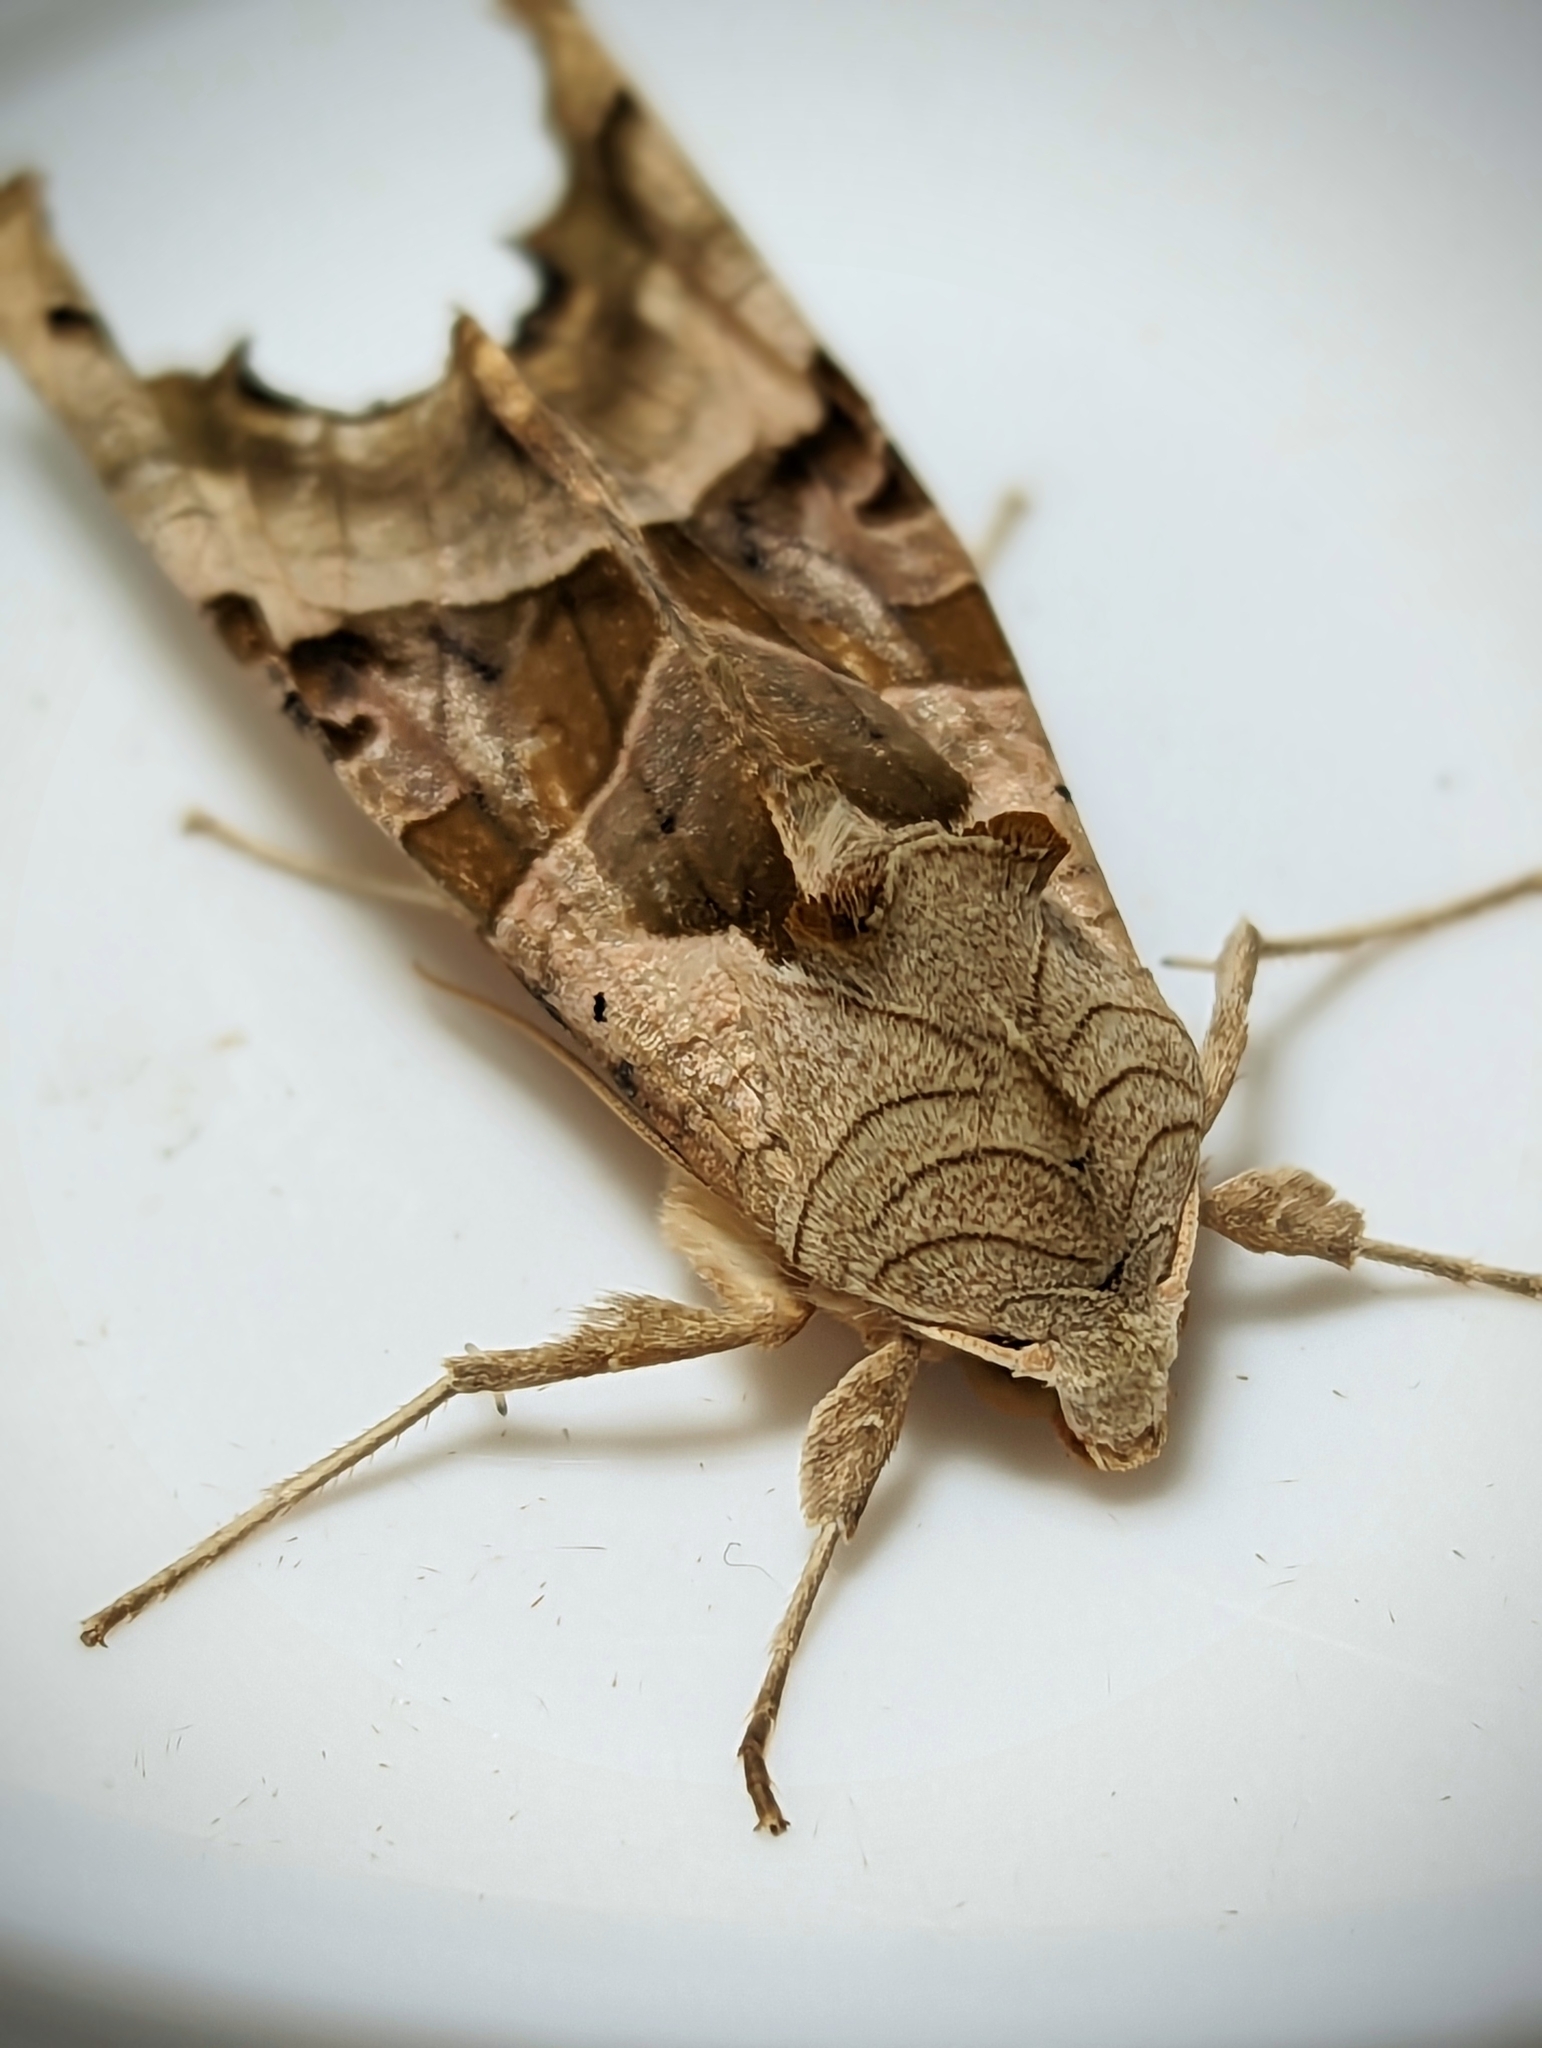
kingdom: Animalia
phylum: Arthropoda
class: Insecta
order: Lepidoptera
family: Noctuidae
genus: Phlogophora
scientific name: Phlogophora meticulosa
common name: Angle shades
